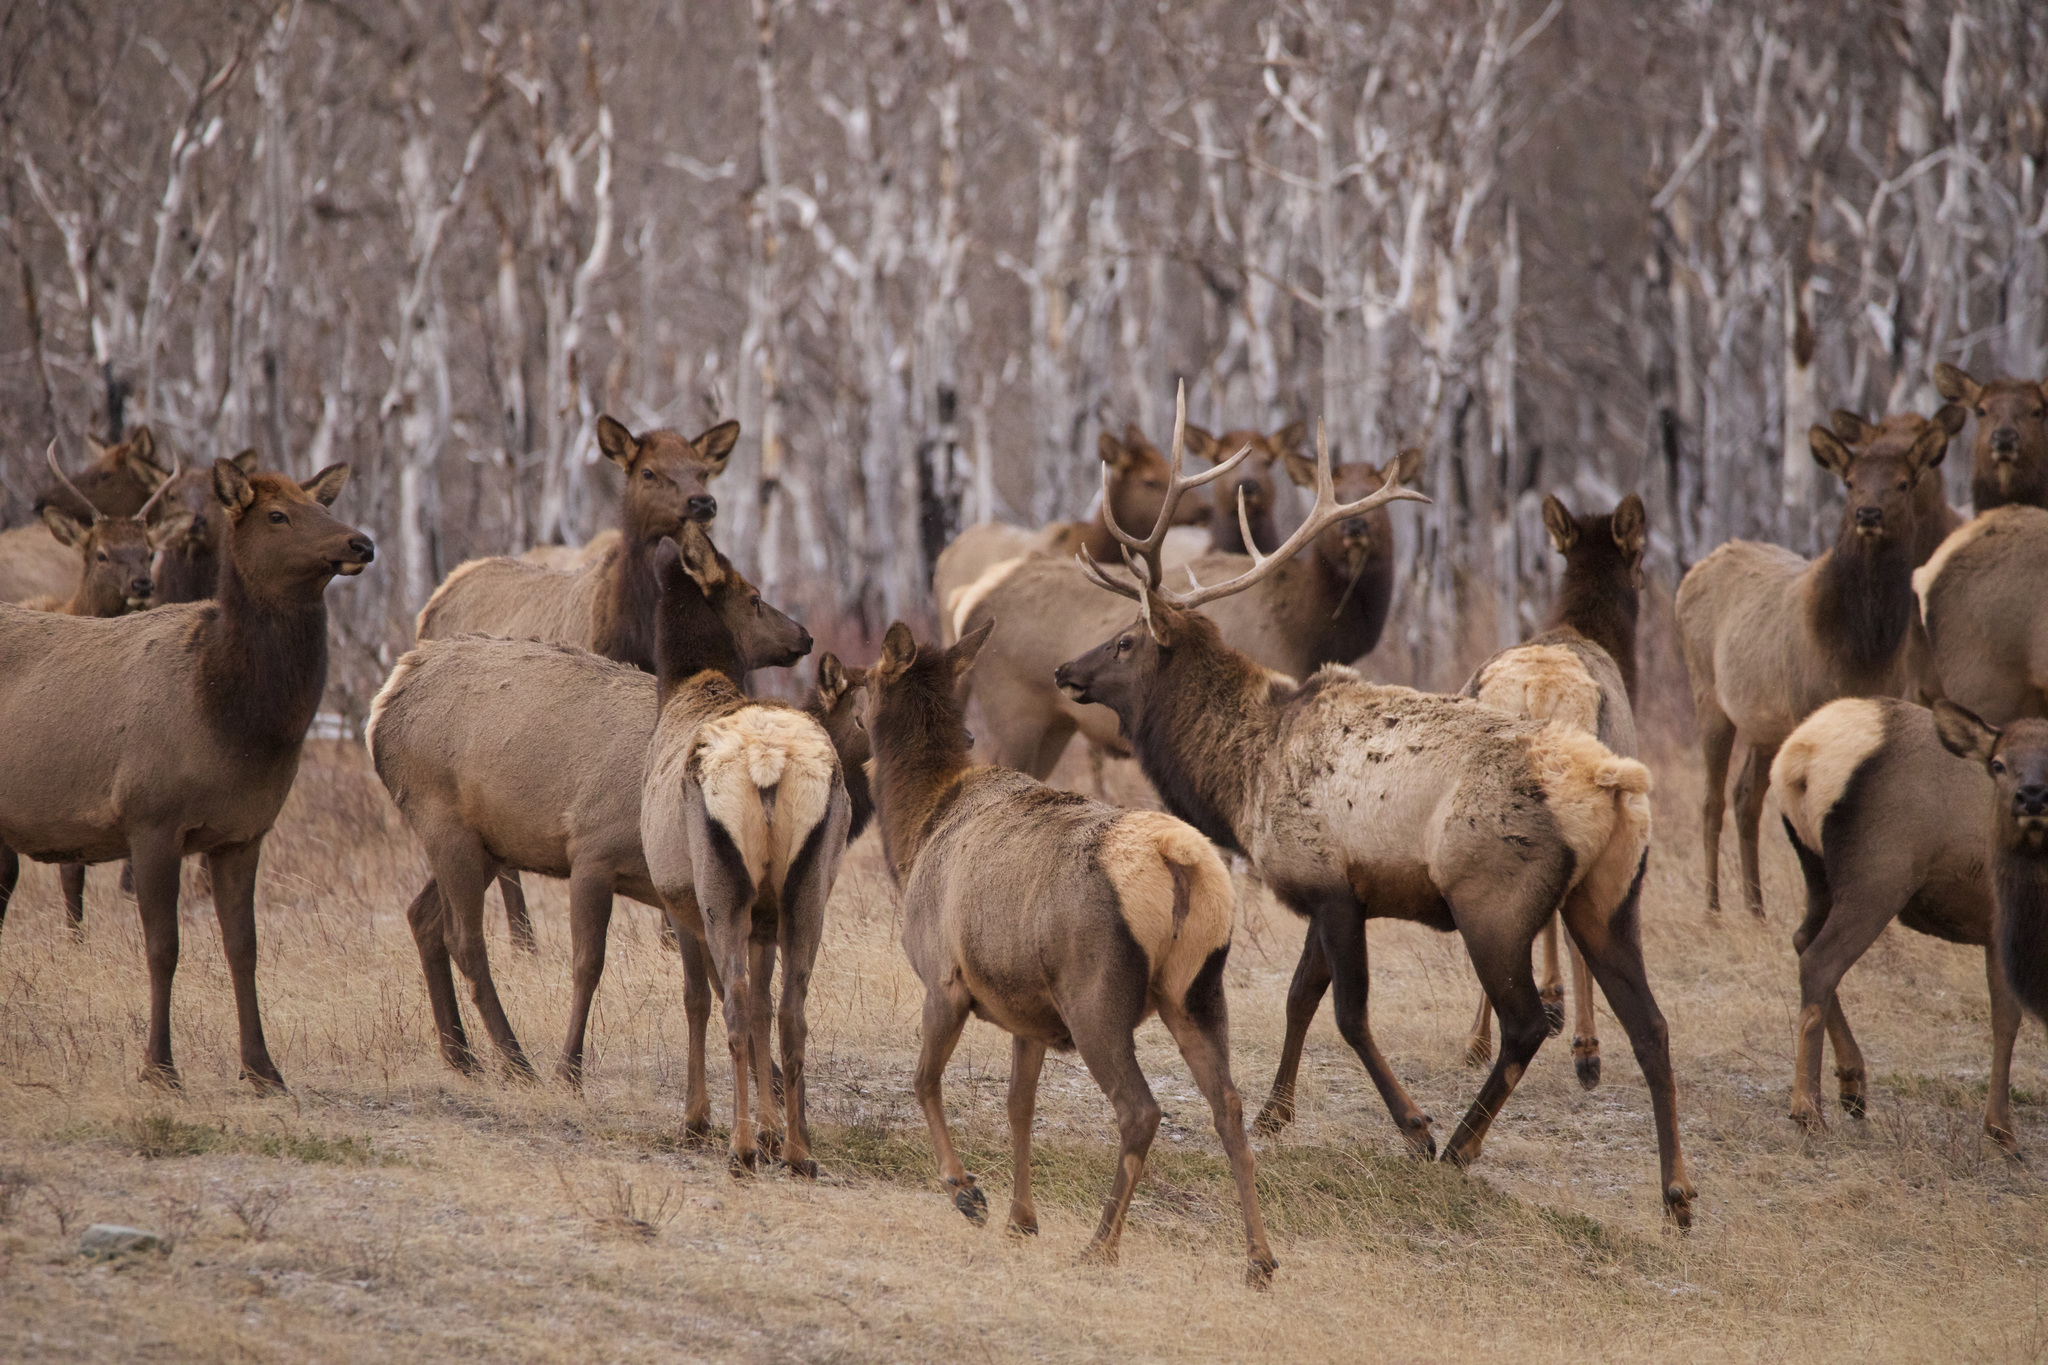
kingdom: Animalia
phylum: Chordata
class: Mammalia
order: Artiodactyla
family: Cervidae
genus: Cervus
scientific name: Cervus elaphus
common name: Red deer
